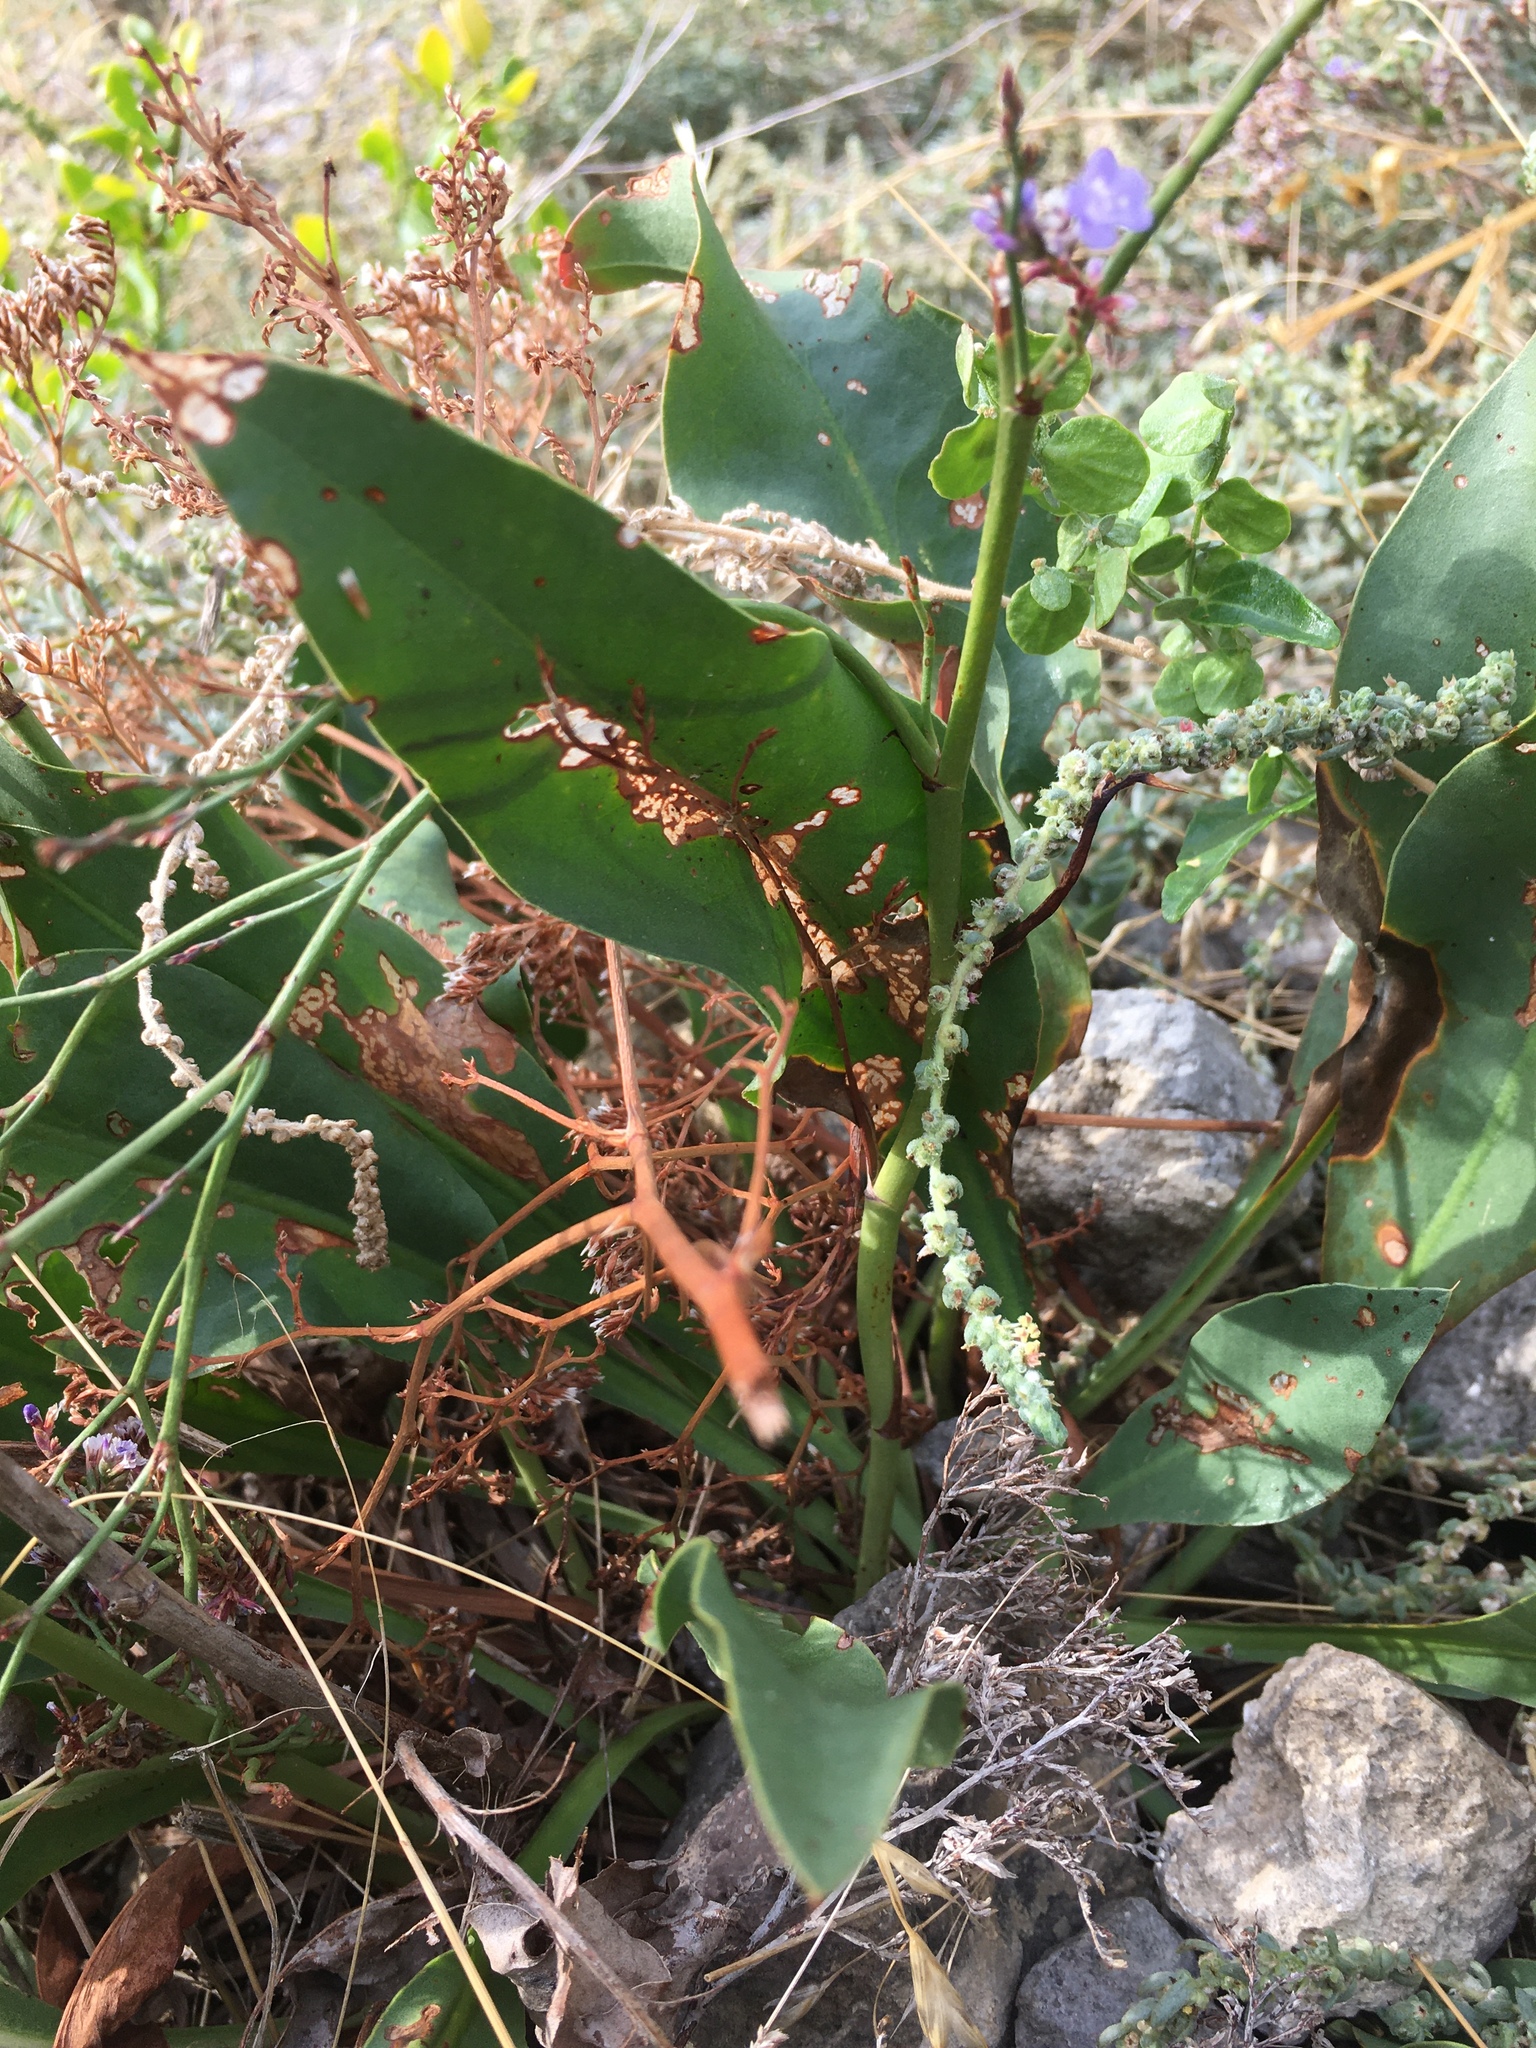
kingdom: Plantae
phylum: Tracheophyta
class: Magnoliopsida
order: Caryophyllales
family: Plumbaginaceae
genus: Limonium
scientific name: Limonium gmelini
